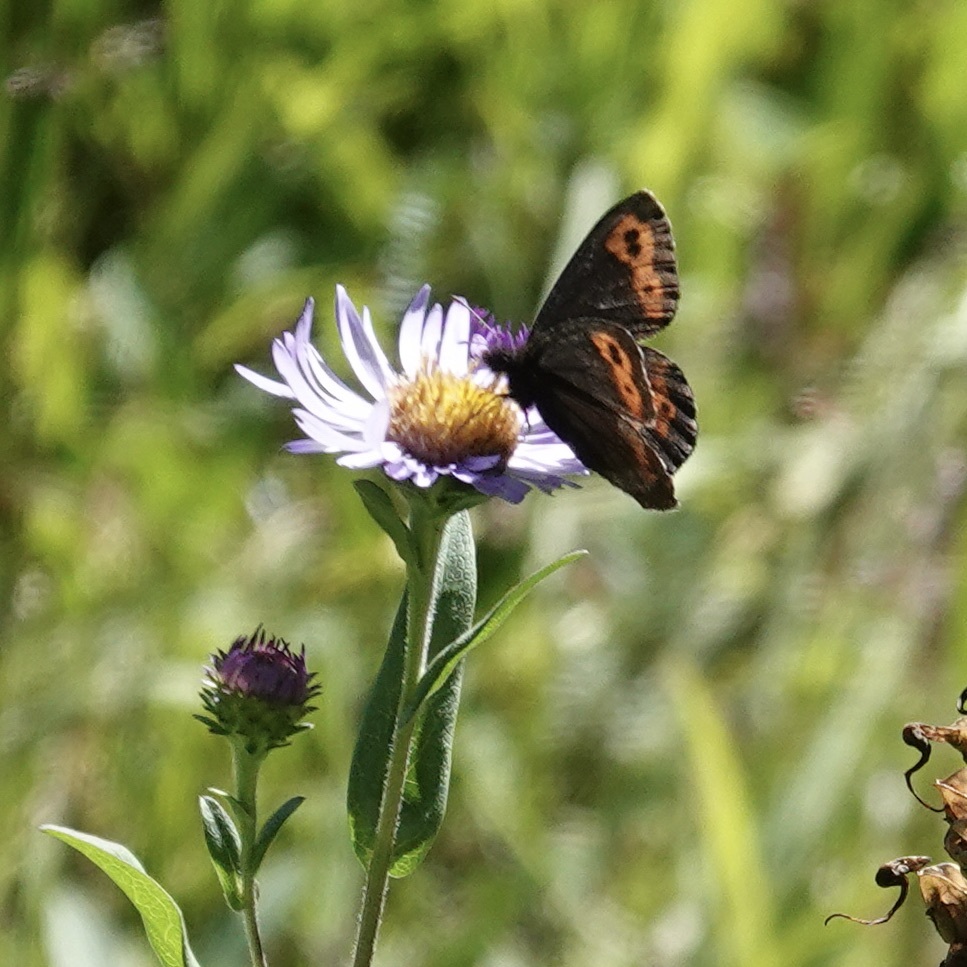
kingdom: Animalia
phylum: Arthropoda
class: Insecta
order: Lepidoptera
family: Nymphalidae
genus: Erebia
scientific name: Erebia vidleri
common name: Vidler's alpine
